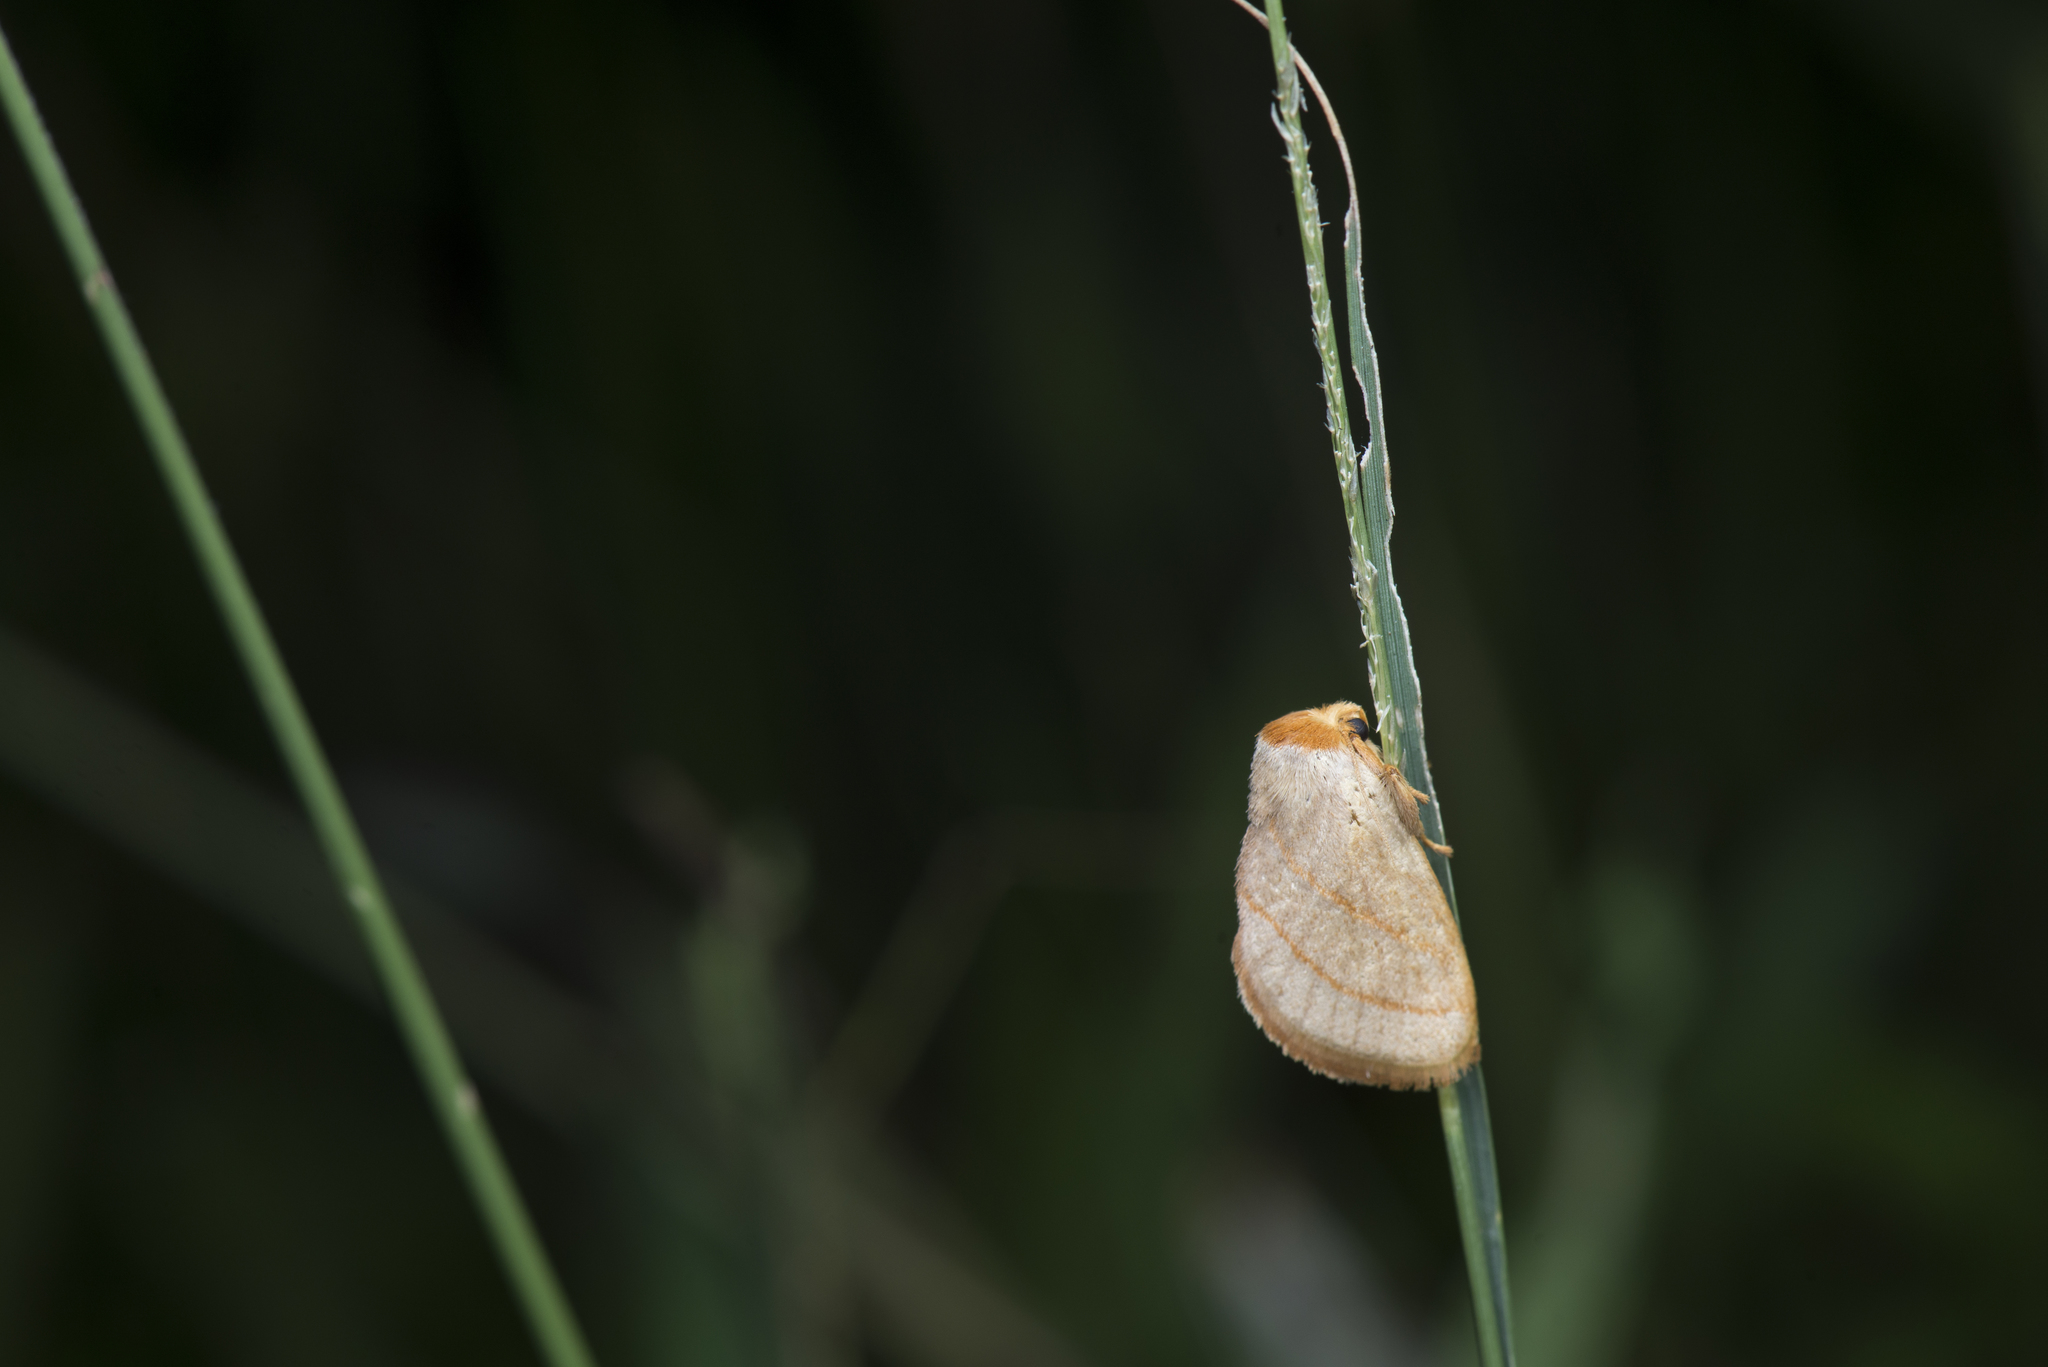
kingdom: Animalia
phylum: Arthropoda
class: Insecta
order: Lepidoptera
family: Limacodidae
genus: Cania
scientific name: Cania heppneri
